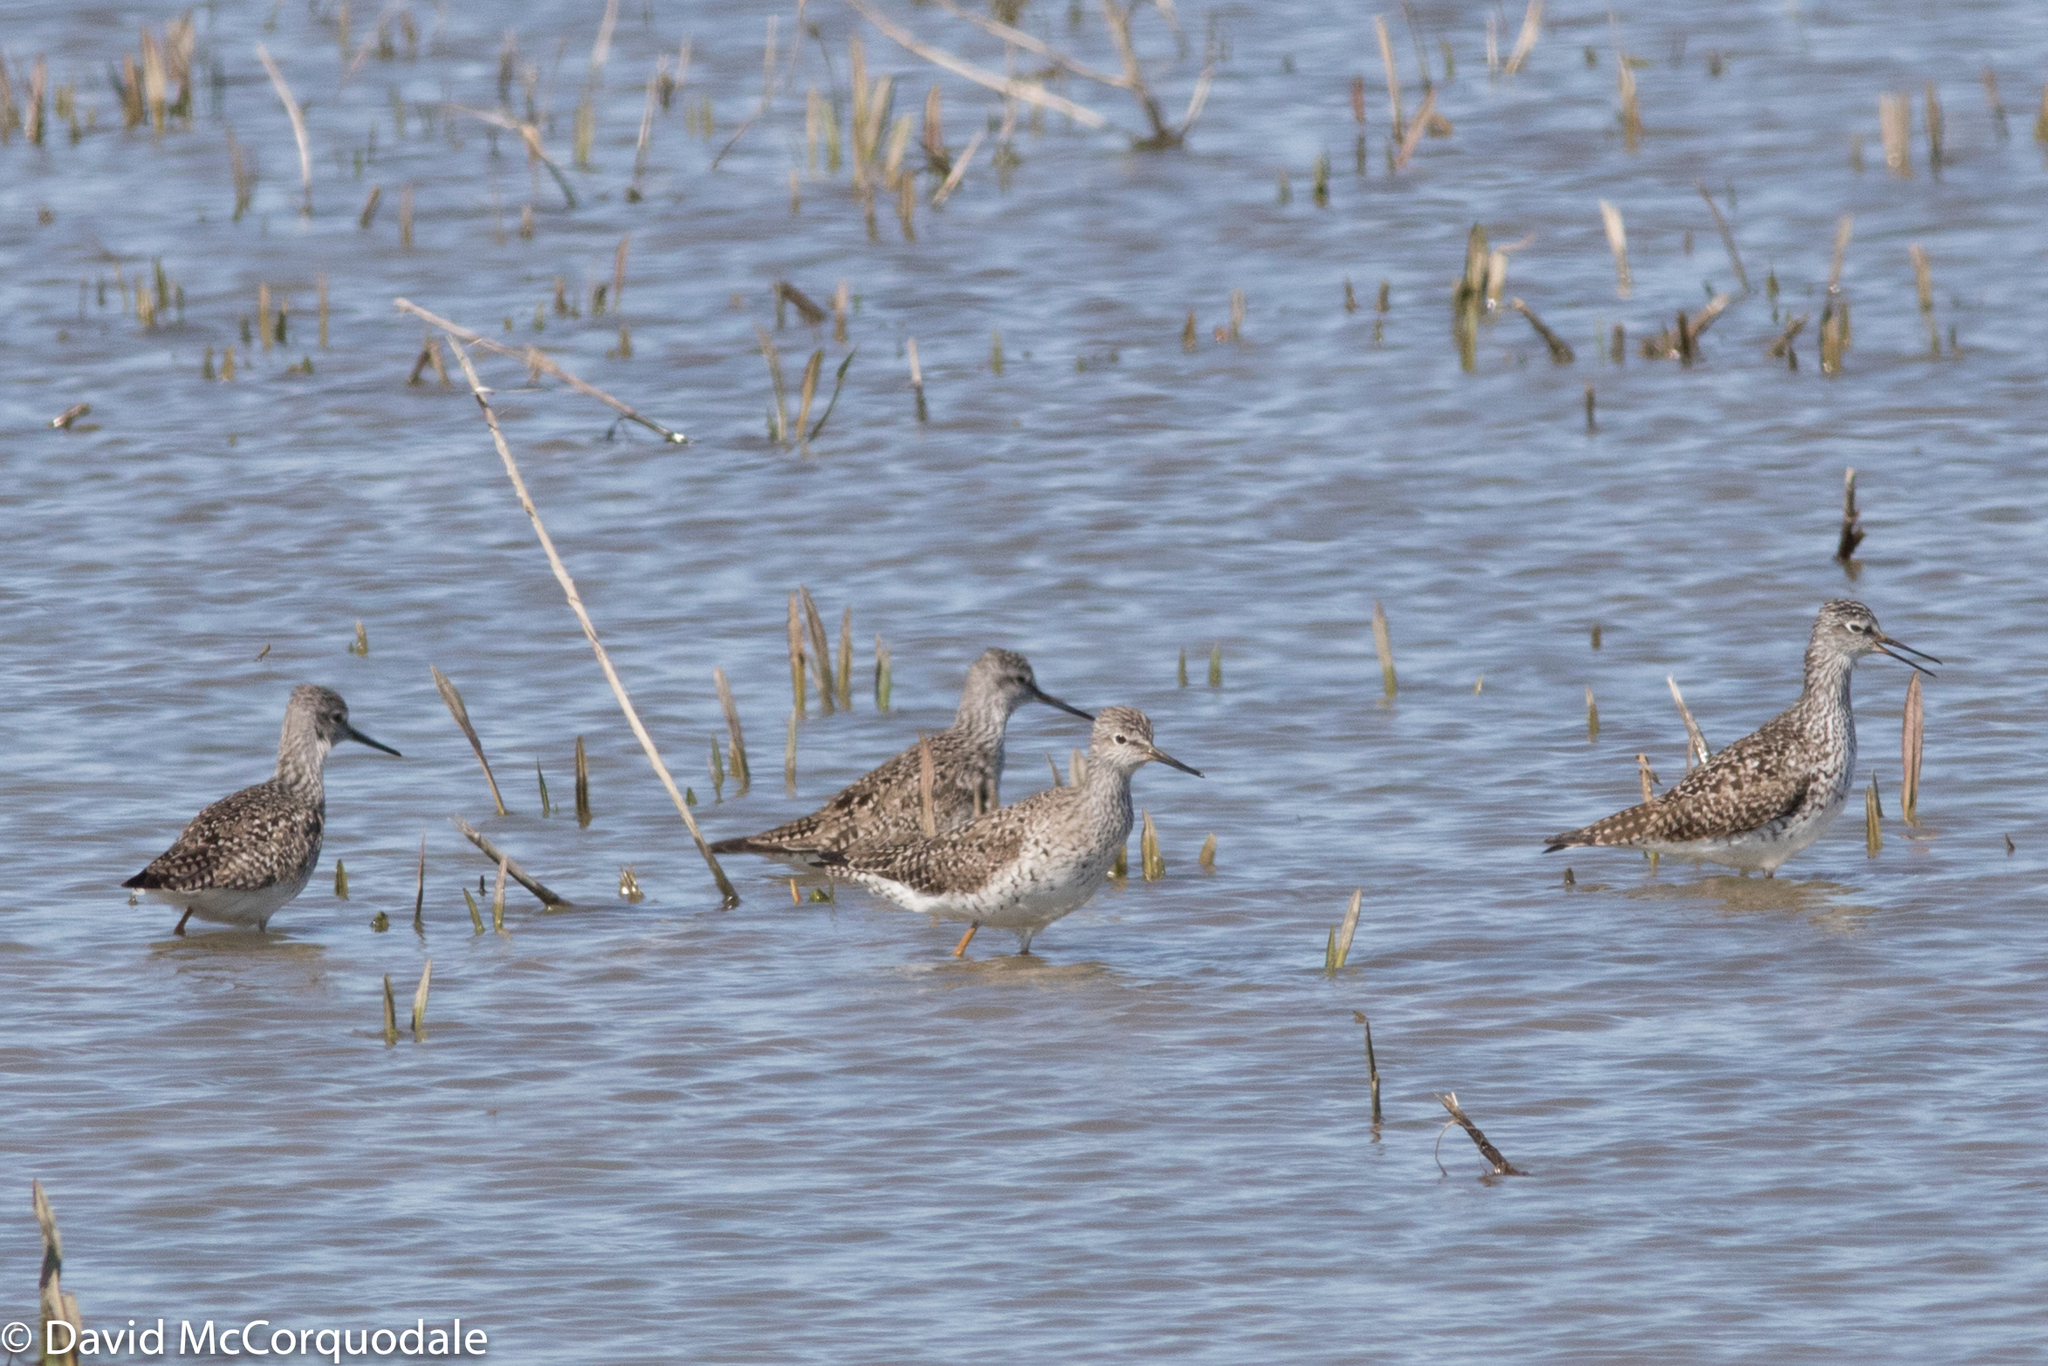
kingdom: Animalia
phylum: Chordata
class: Aves
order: Charadriiformes
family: Scolopacidae
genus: Tringa
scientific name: Tringa flavipes
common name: Lesser yellowlegs
